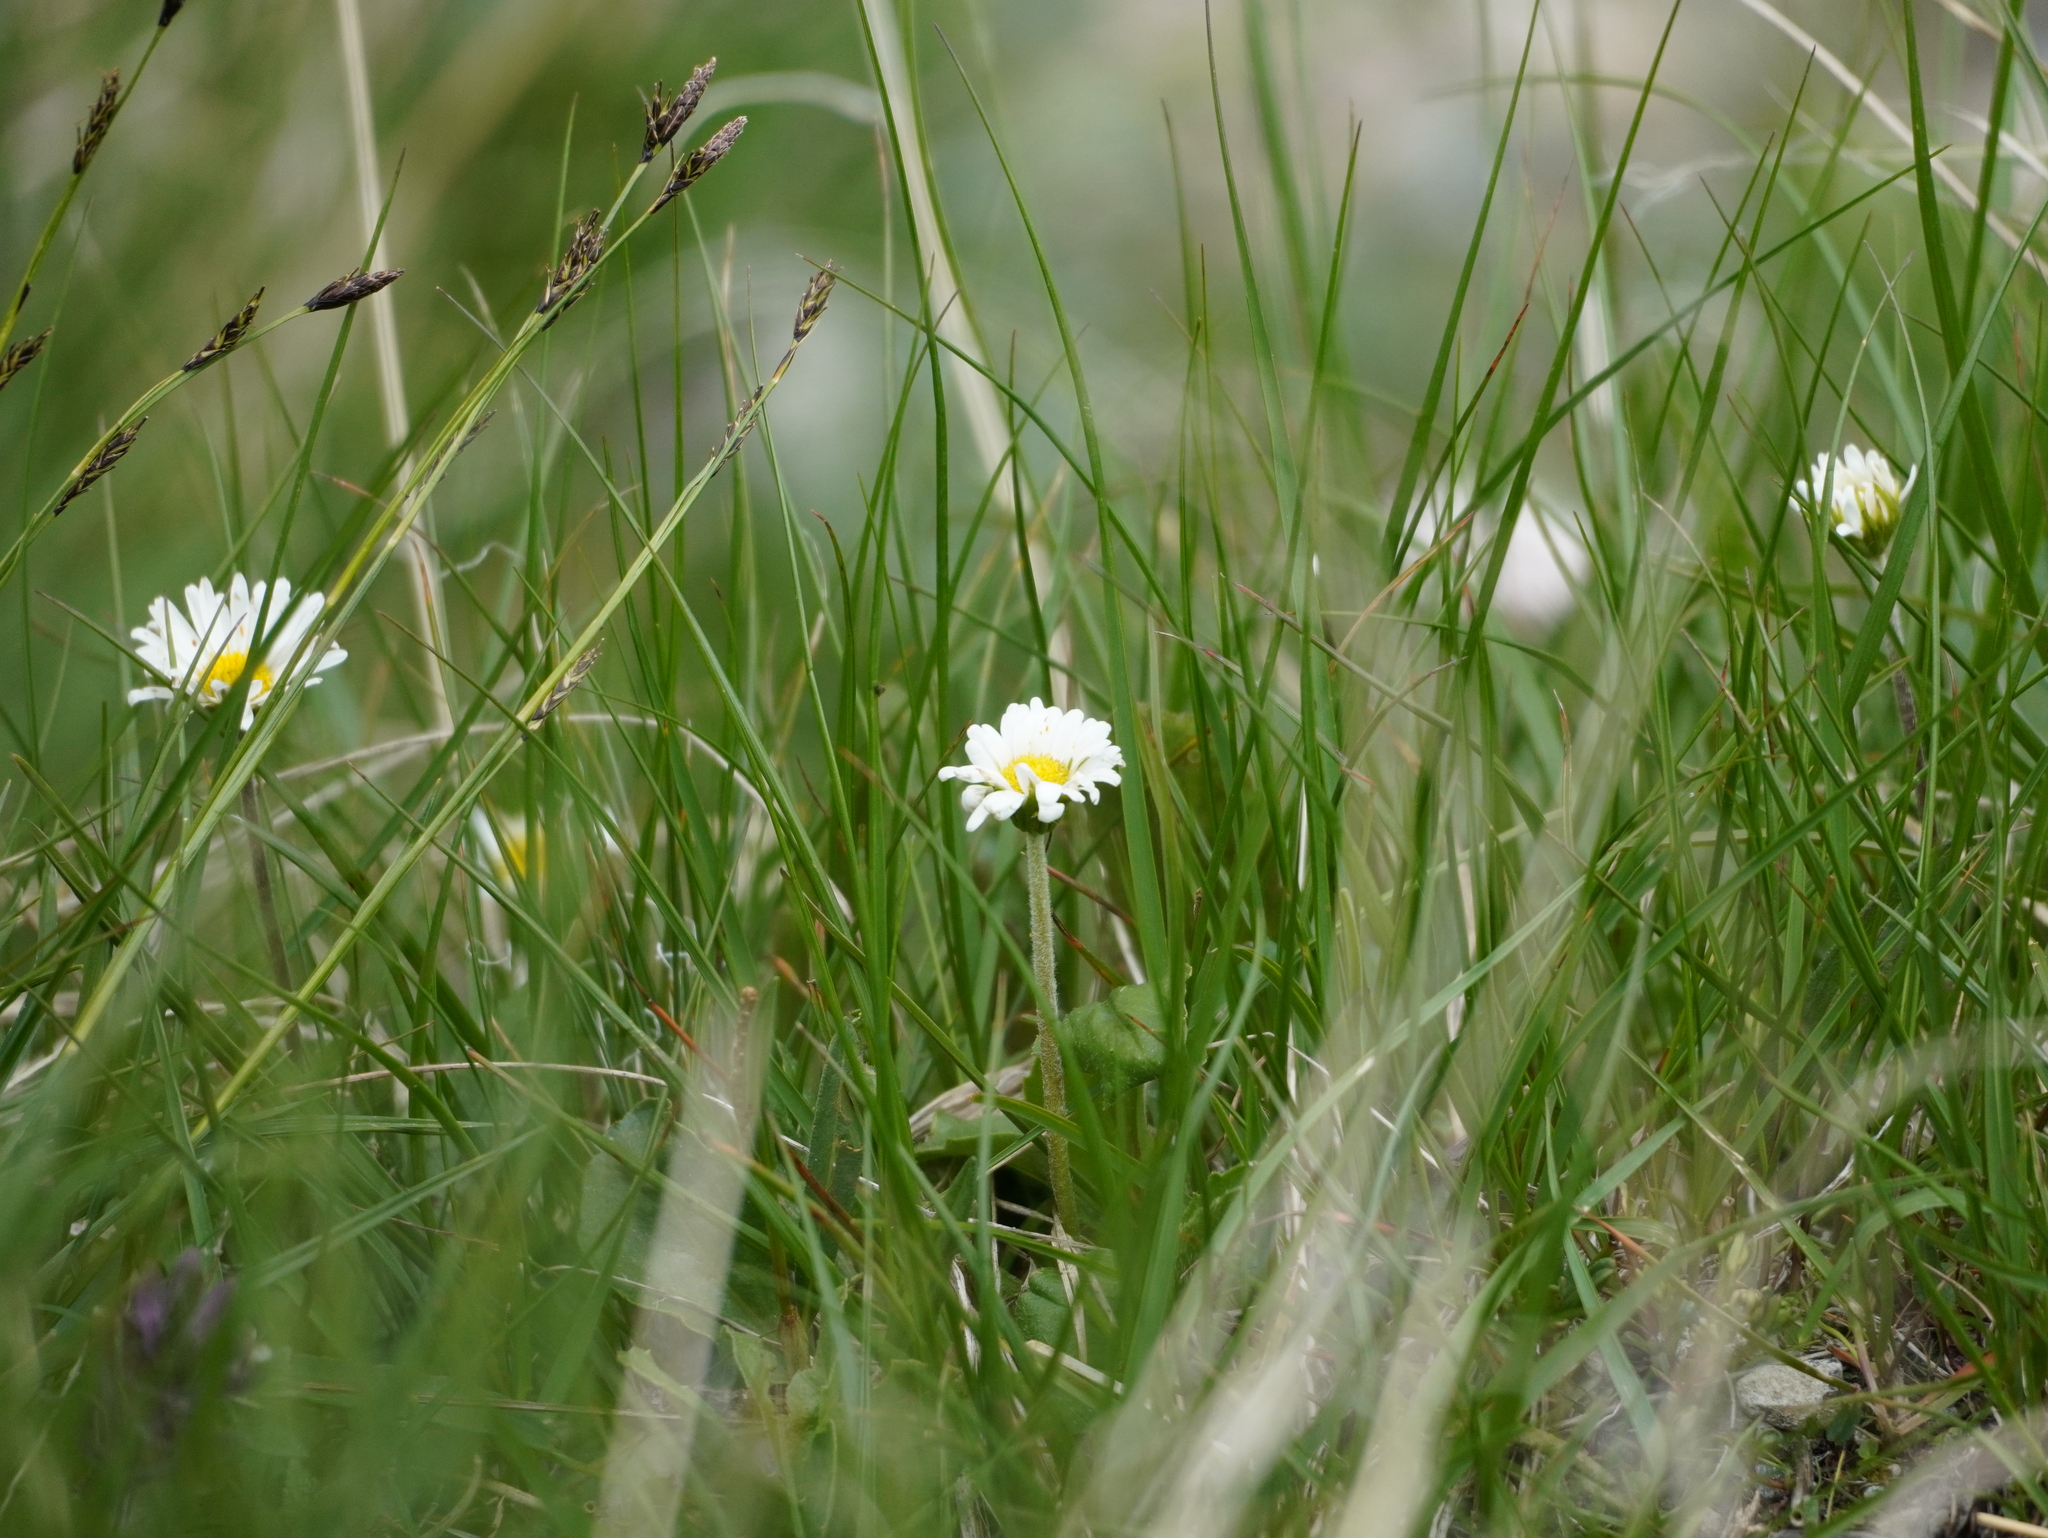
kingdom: Plantae
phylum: Tracheophyta
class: Magnoliopsida
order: Asterales
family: Asteraceae
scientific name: Asteraceae
